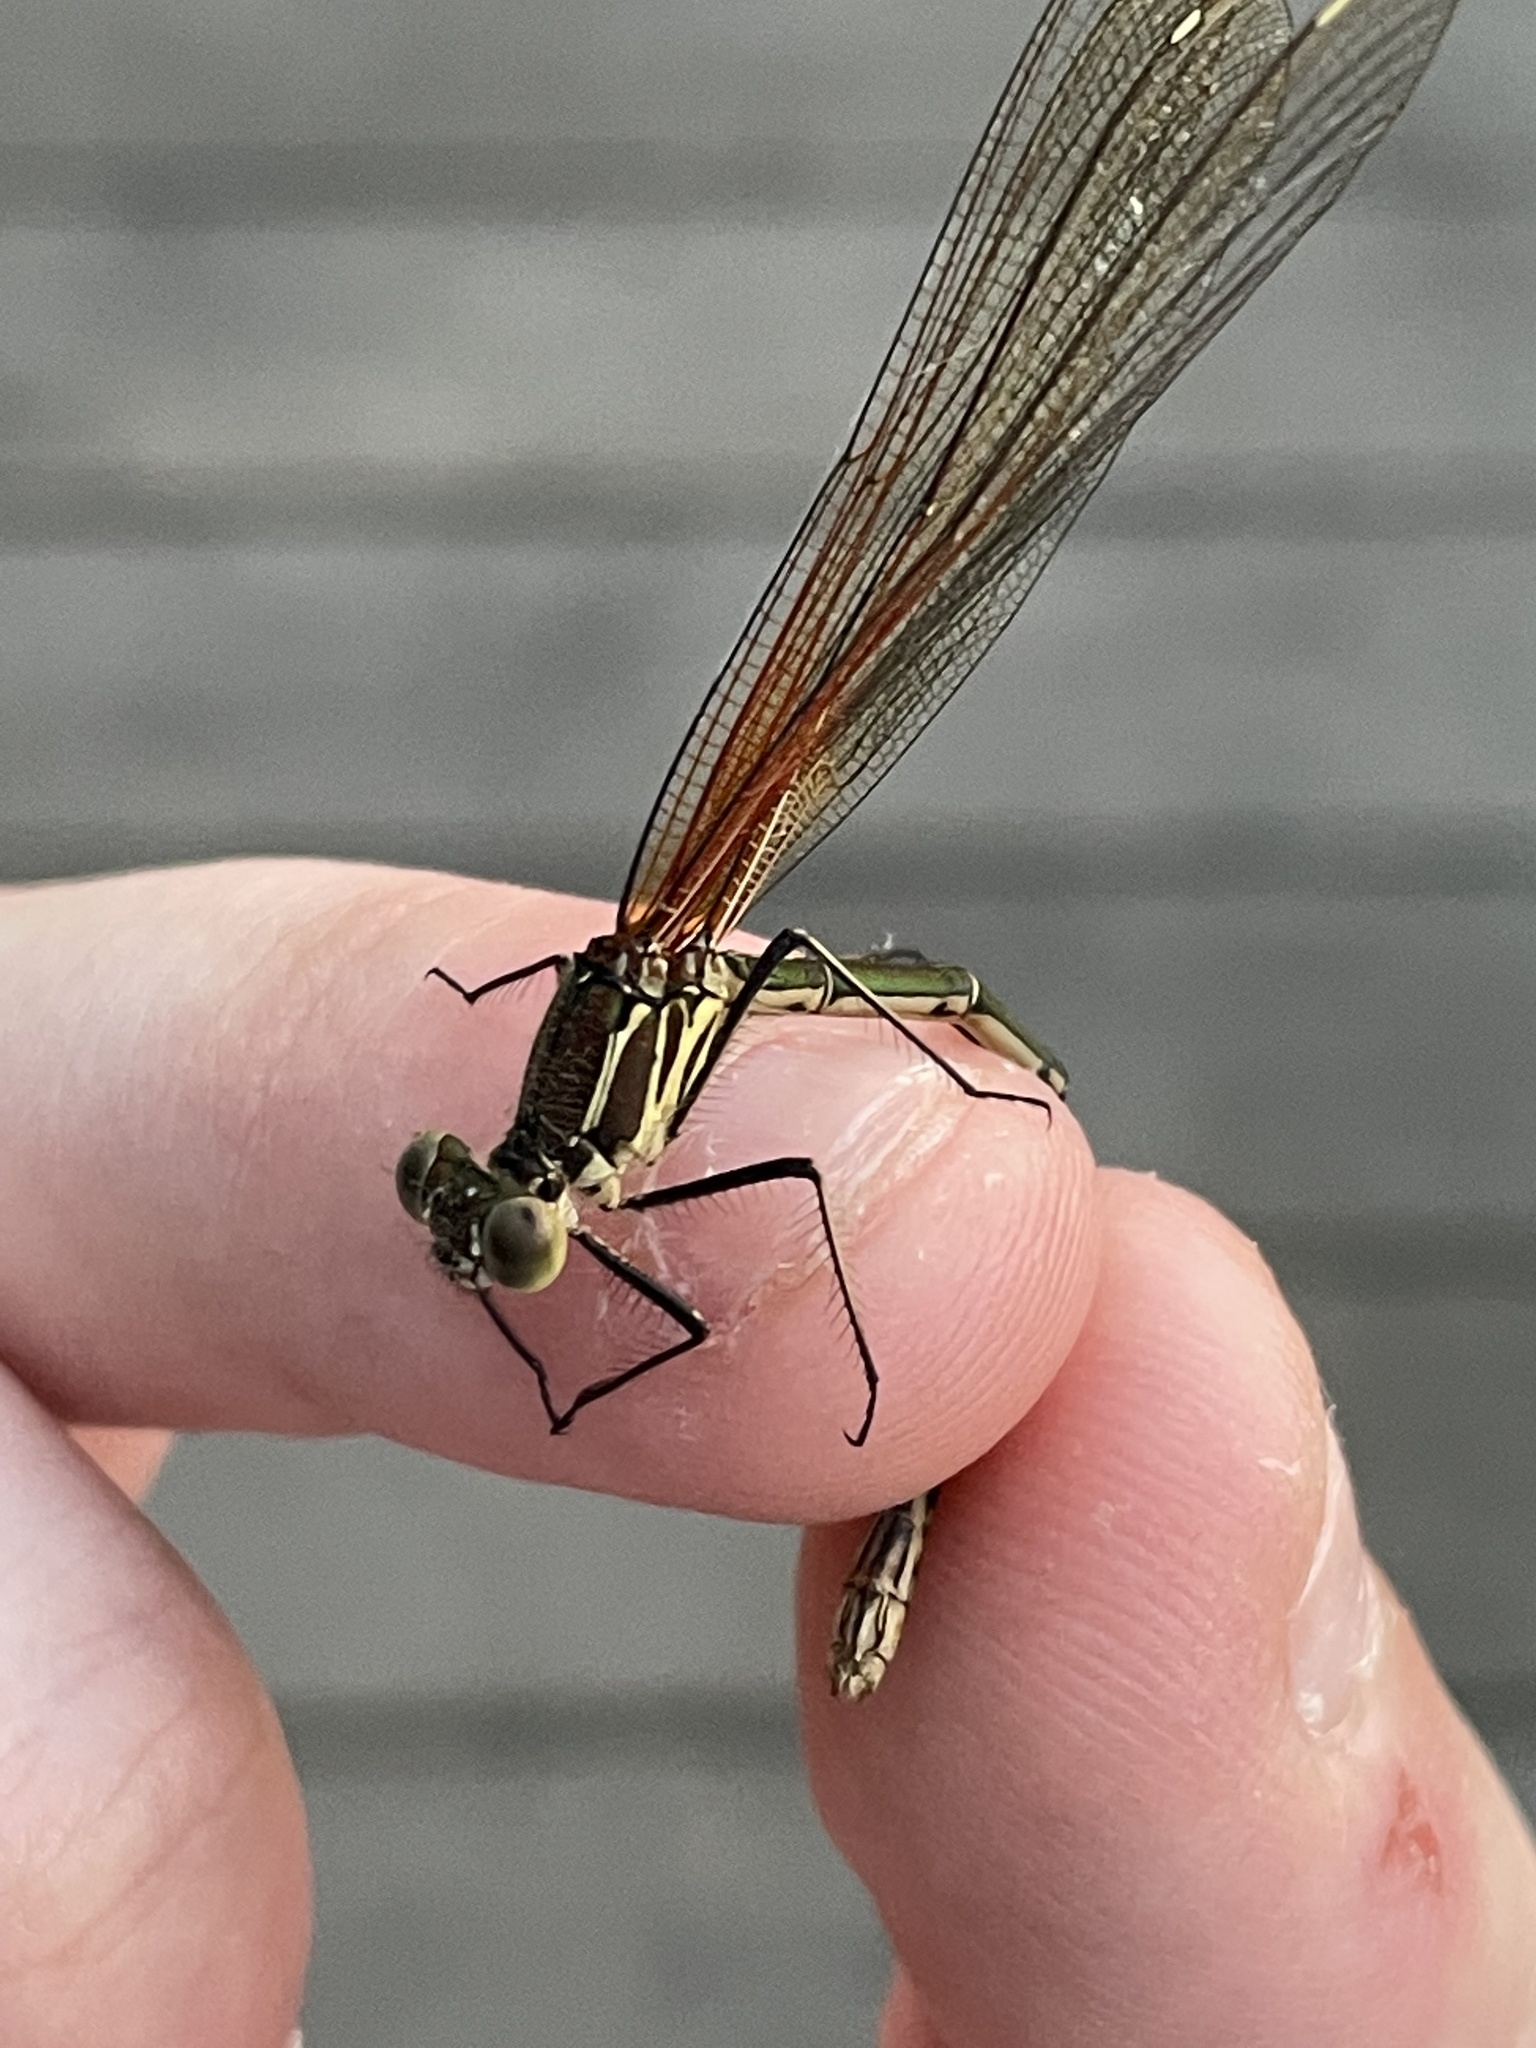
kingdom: Animalia
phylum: Arthropoda
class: Insecta
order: Odonata
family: Calopterygidae
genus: Hetaerina
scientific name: Hetaerina americana
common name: American rubyspot
